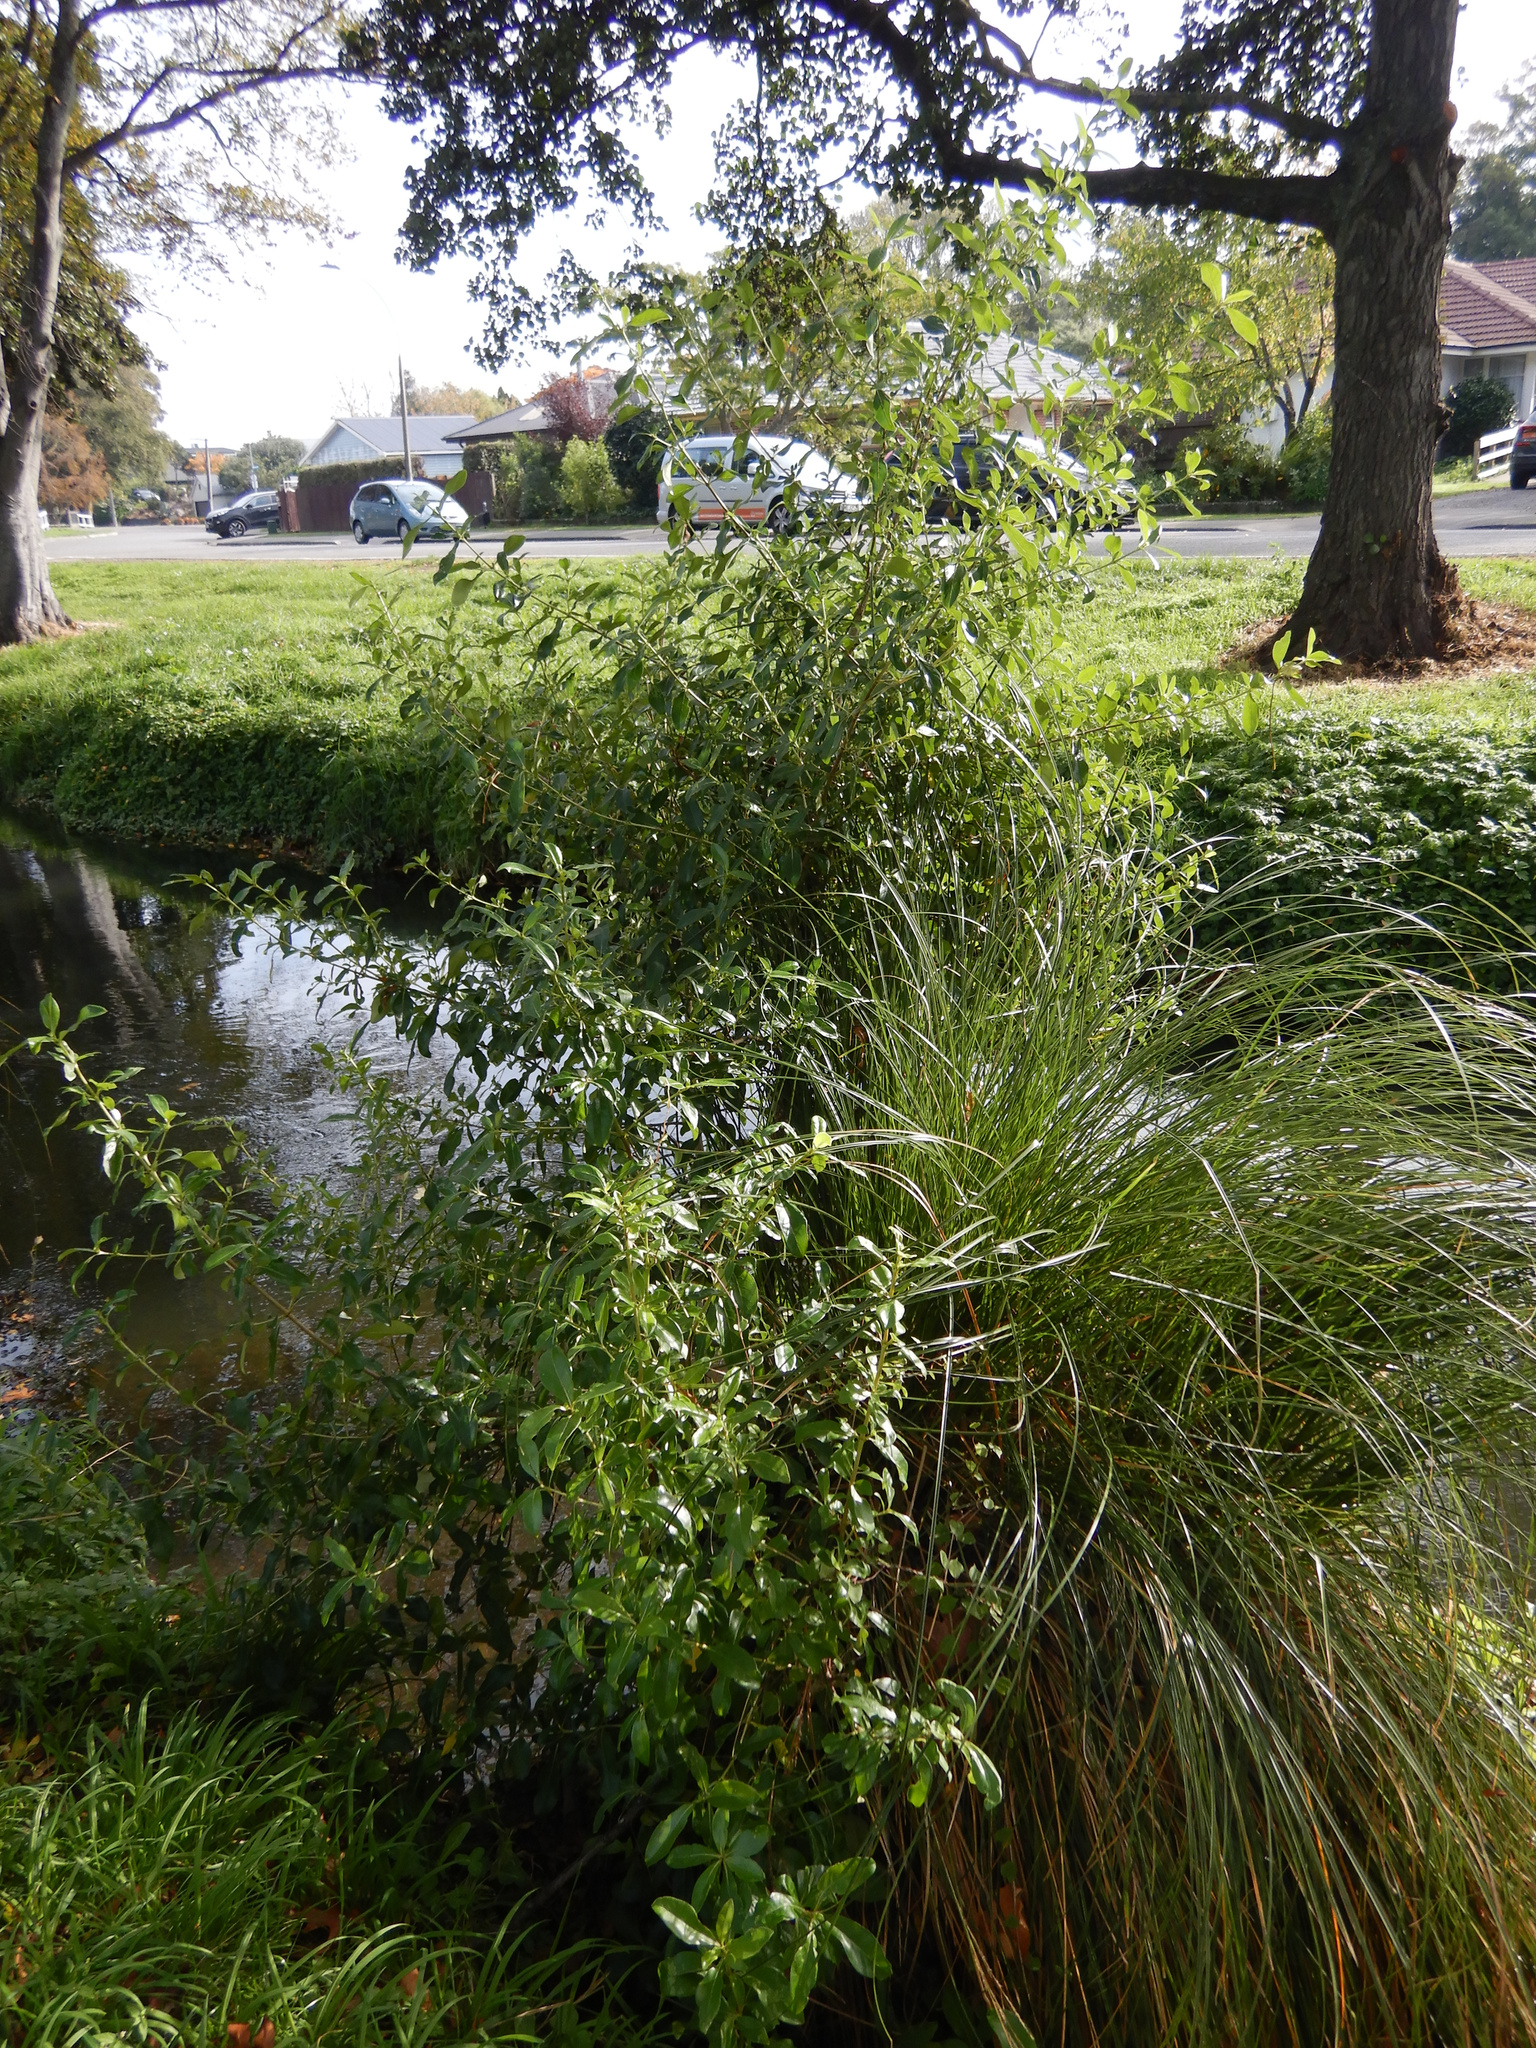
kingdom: Plantae
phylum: Tracheophyta
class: Magnoliopsida
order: Gentianales
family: Rubiaceae
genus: Coprosma
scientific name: Coprosma robusta
